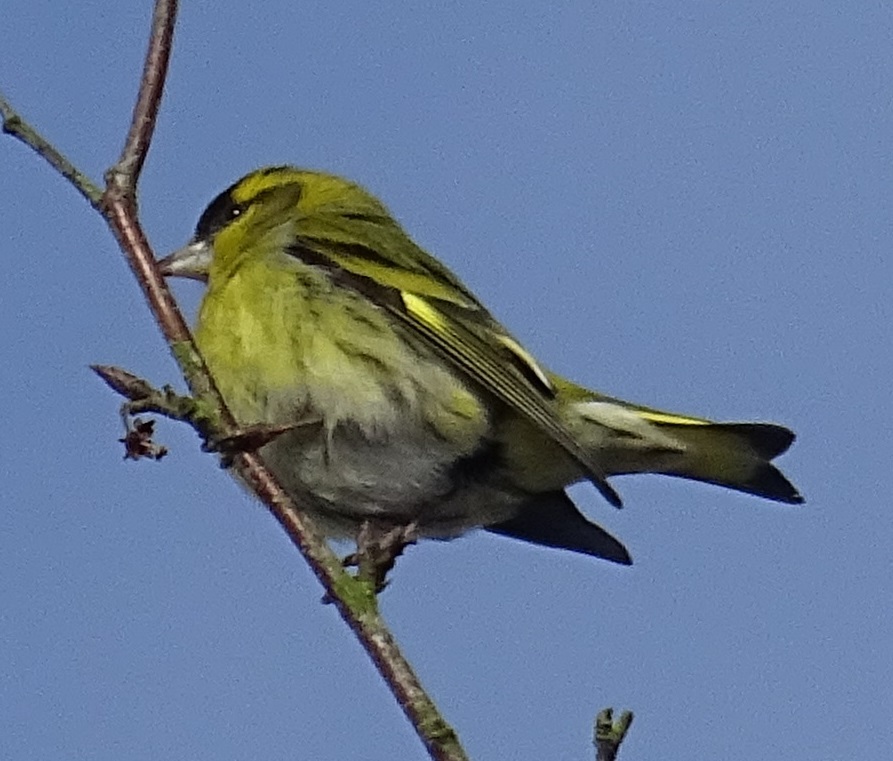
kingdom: Animalia
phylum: Chordata
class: Aves
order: Passeriformes
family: Fringillidae
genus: Spinus
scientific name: Spinus spinus
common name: Eurasian siskin
